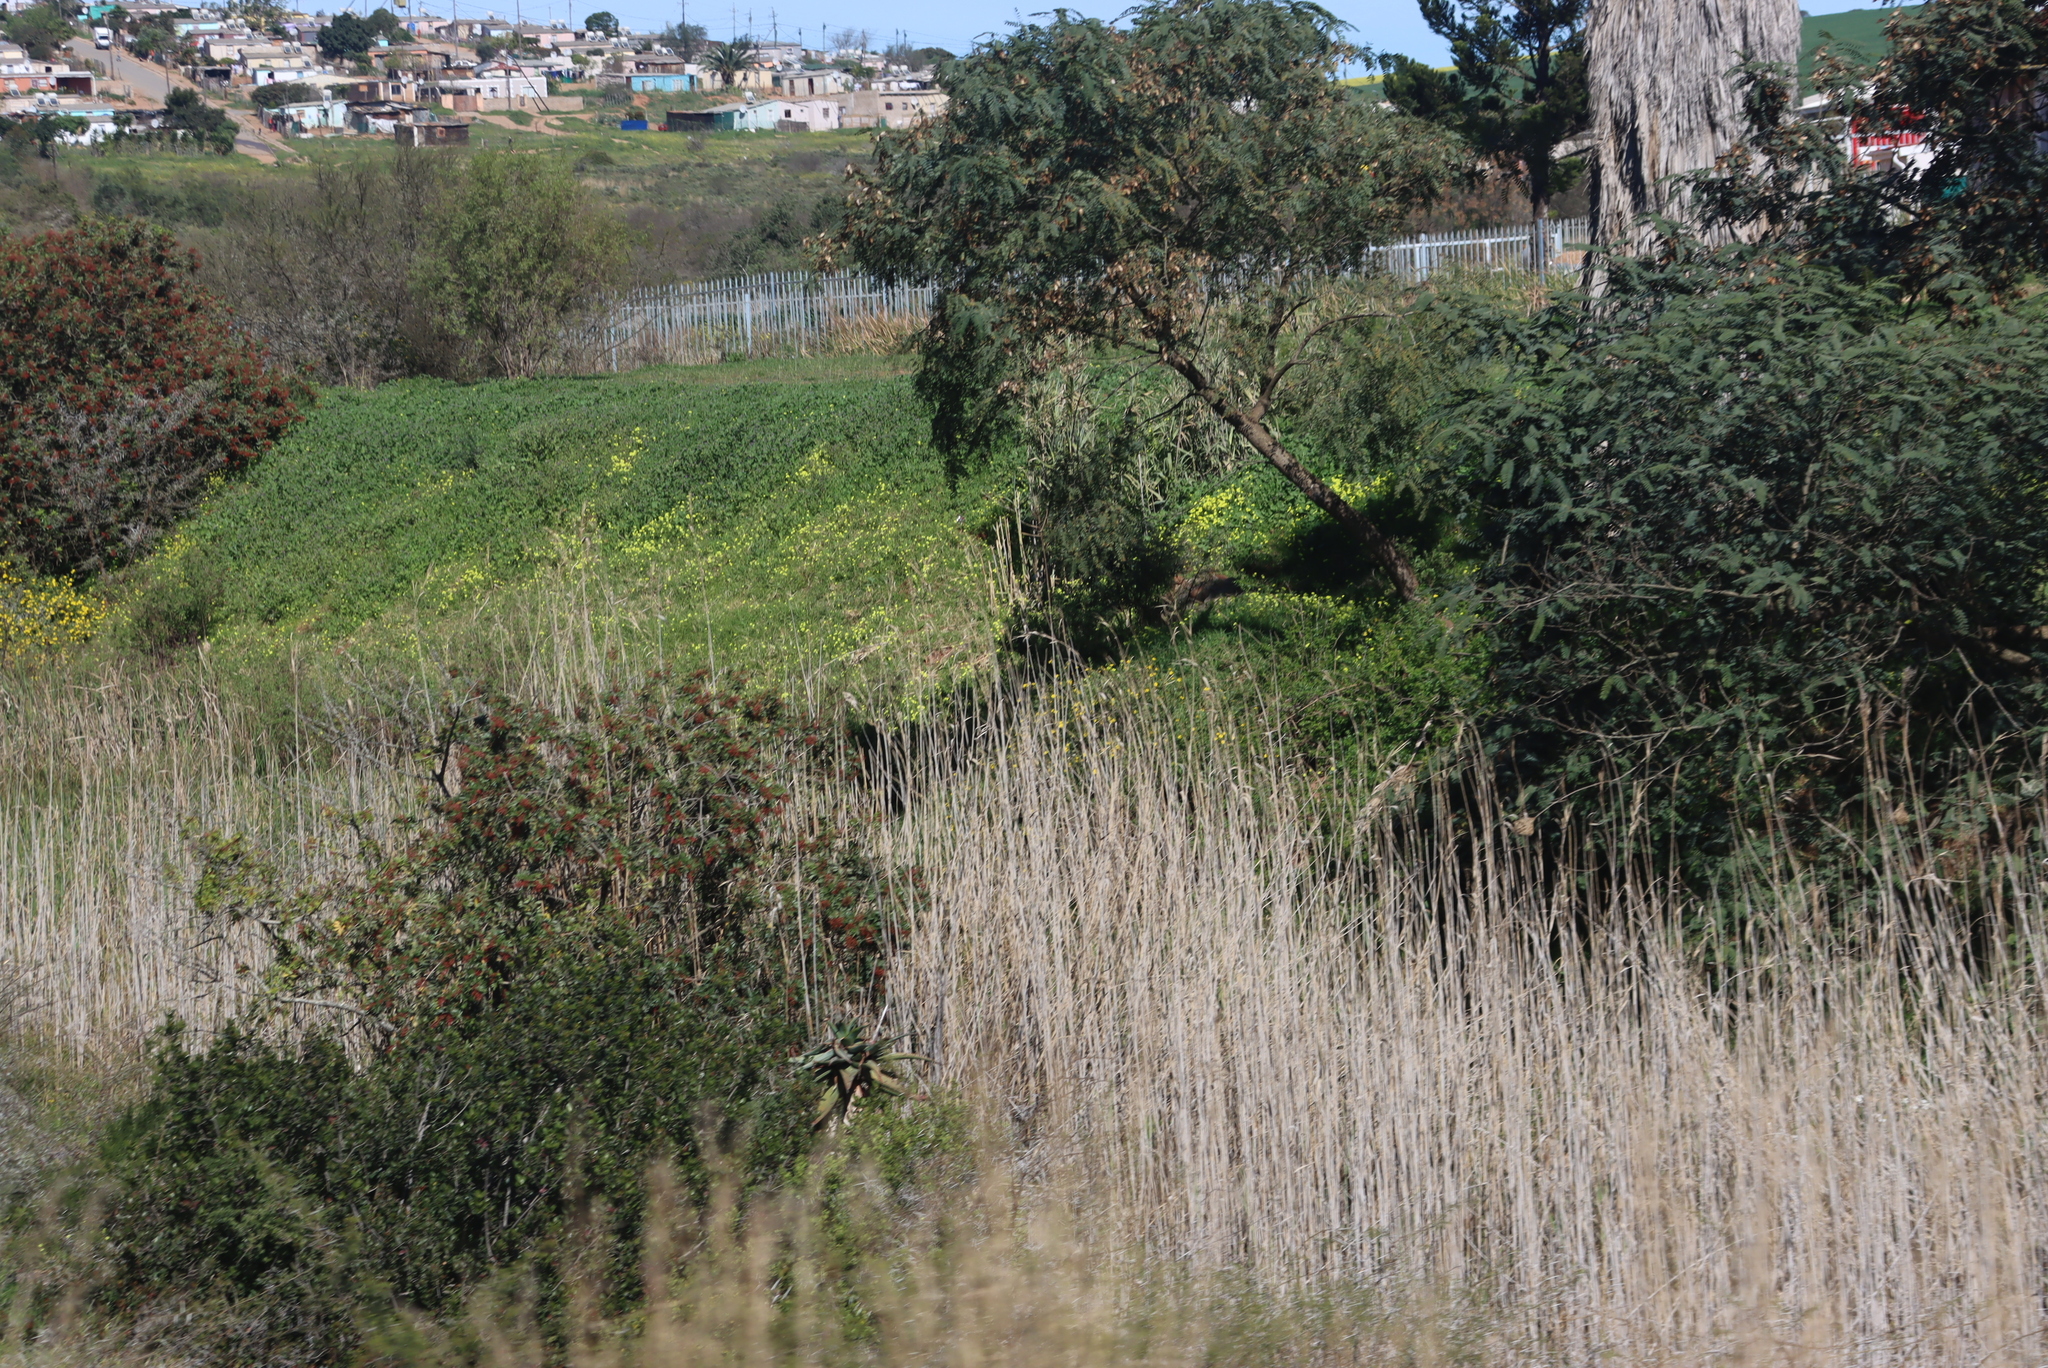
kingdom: Plantae
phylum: Tracheophyta
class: Magnoliopsida
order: Oxalidales
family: Oxalidaceae
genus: Oxalis
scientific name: Oxalis pes-caprae
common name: Bermuda-buttercup
